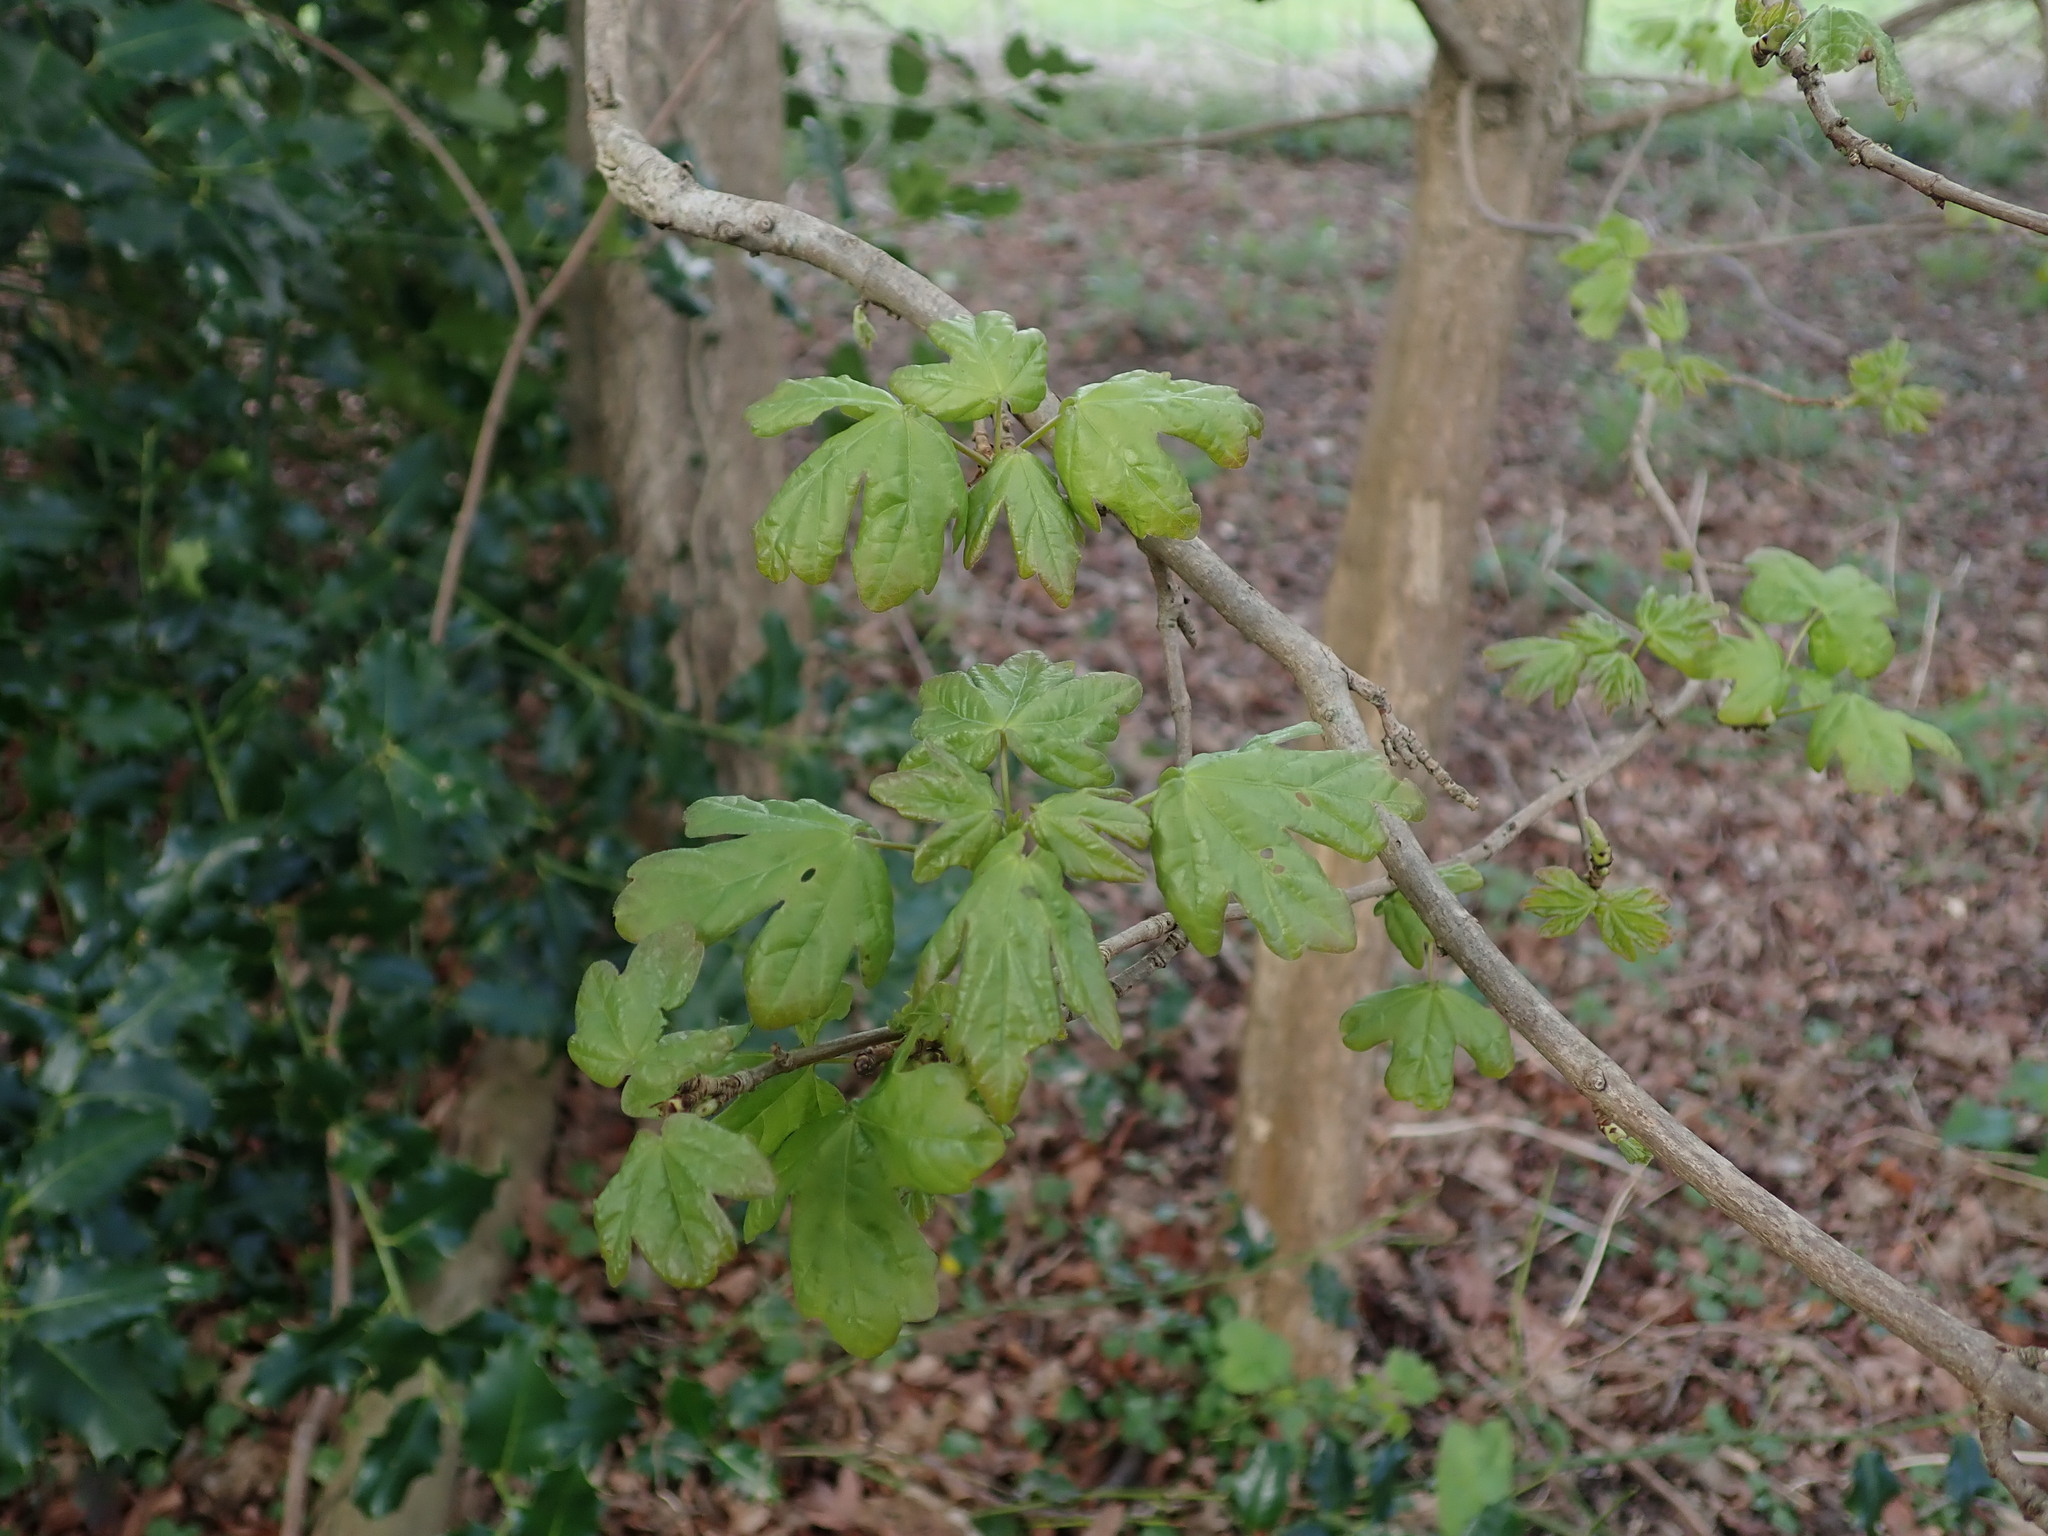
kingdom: Plantae
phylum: Tracheophyta
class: Magnoliopsida
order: Sapindales
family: Sapindaceae
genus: Acer
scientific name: Acer campestre
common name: Field maple
